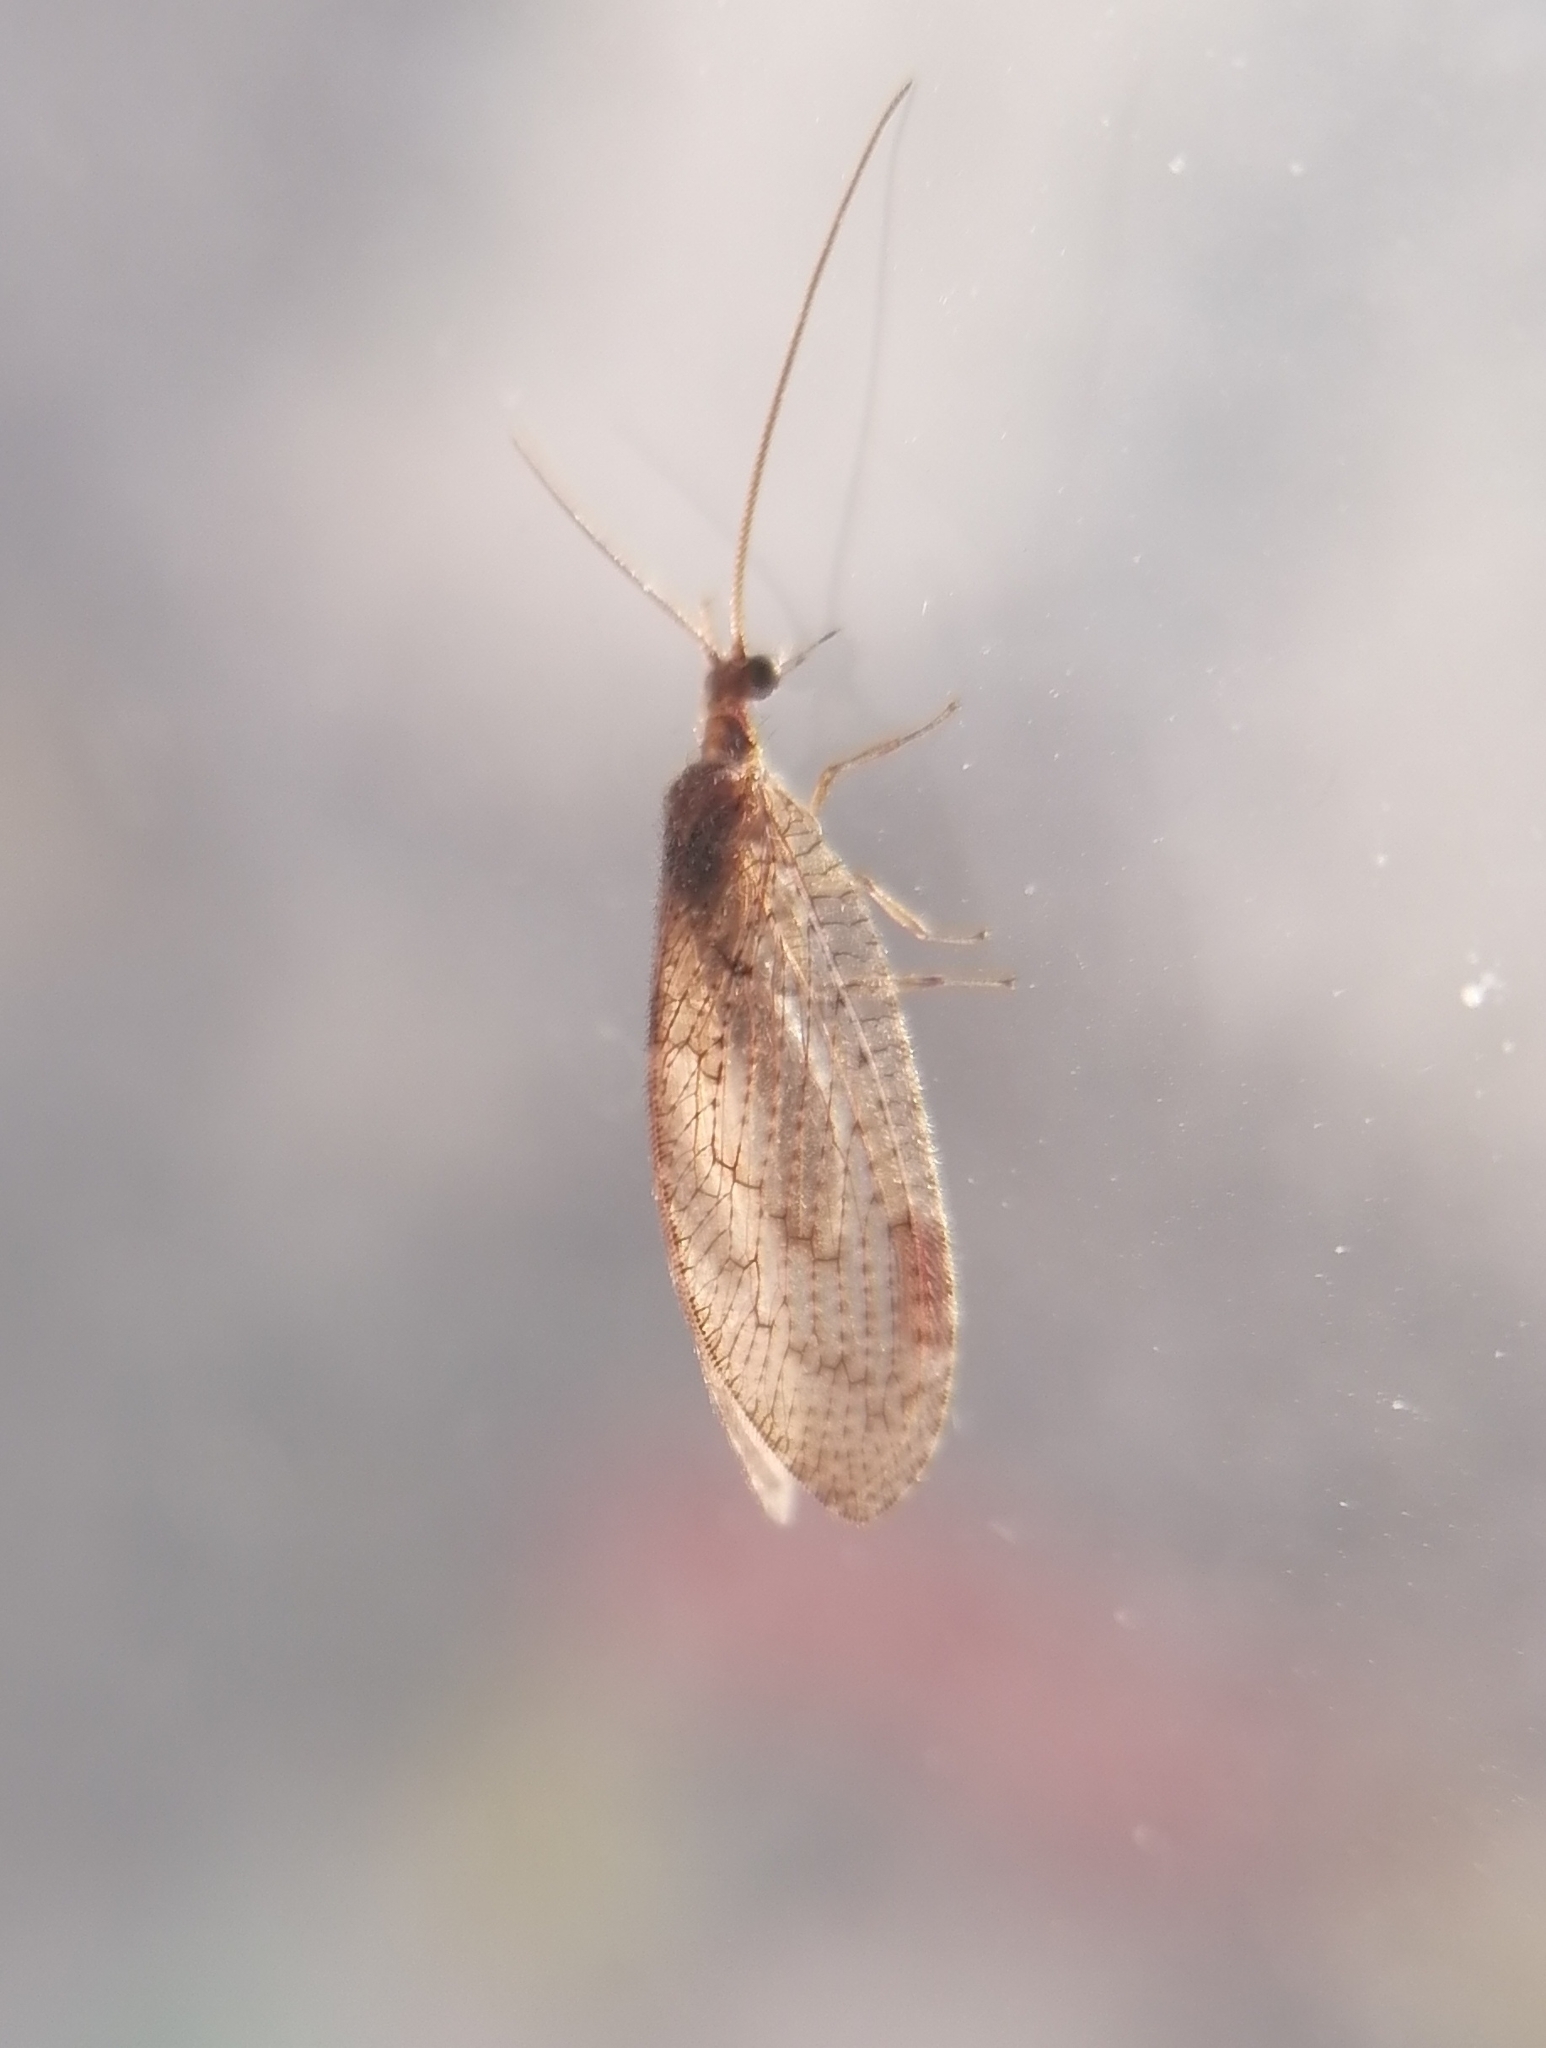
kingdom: Animalia
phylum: Arthropoda
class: Insecta
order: Neuroptera
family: Hemerobiidae
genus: Hemerobius
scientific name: Hemerobius stigma
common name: Brown pine lacewing
